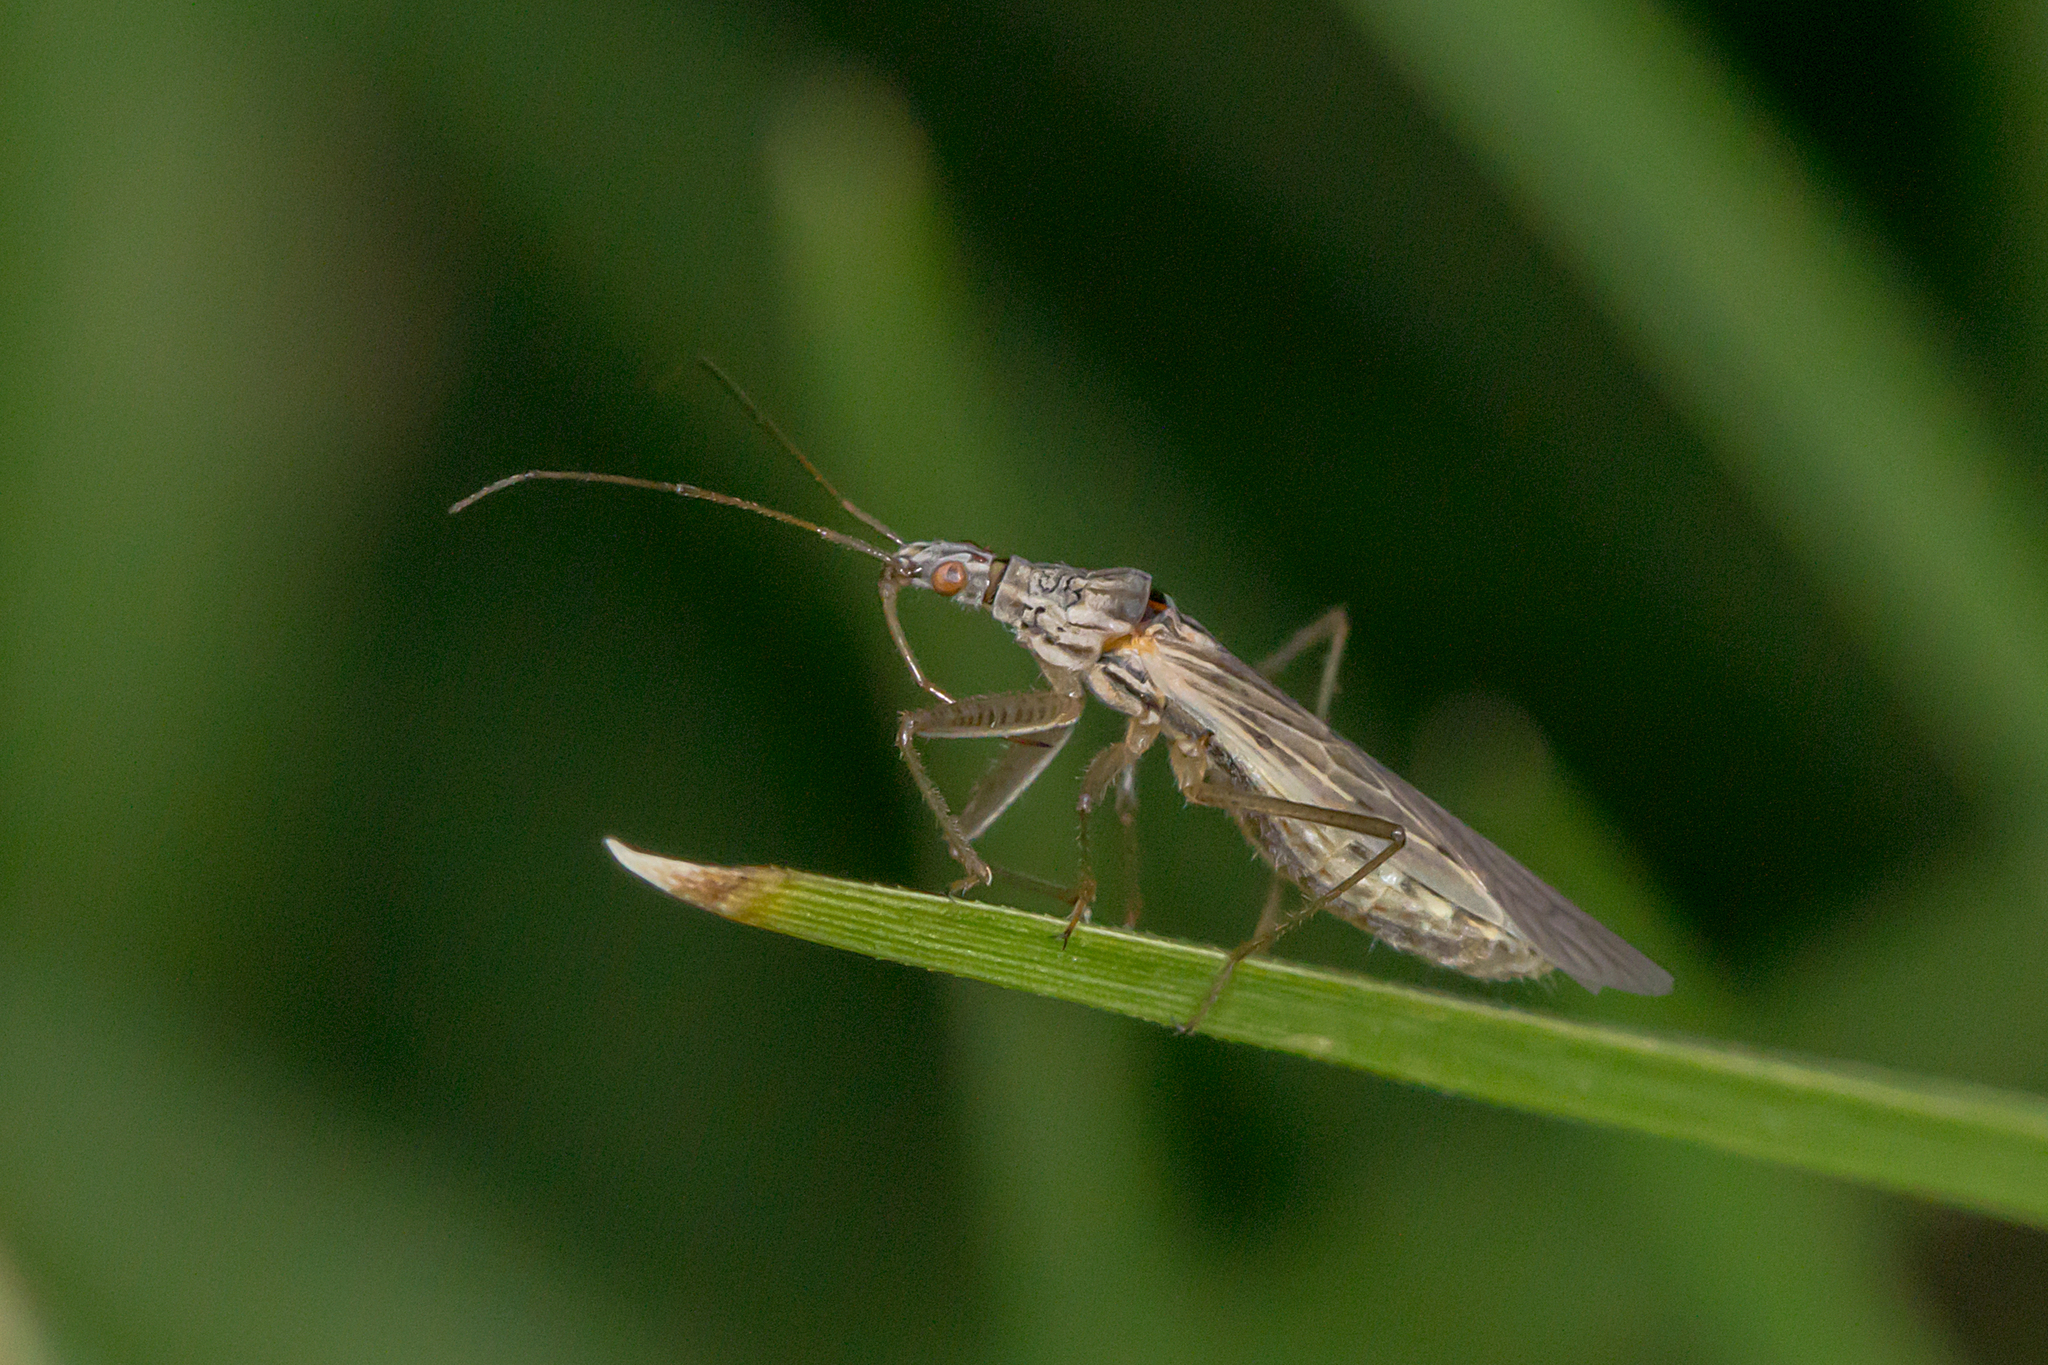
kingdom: Animalia
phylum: Arthropoda
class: Insecta
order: Hemiptera
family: Nabidae
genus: Nabis
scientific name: Nabis kinbergii
